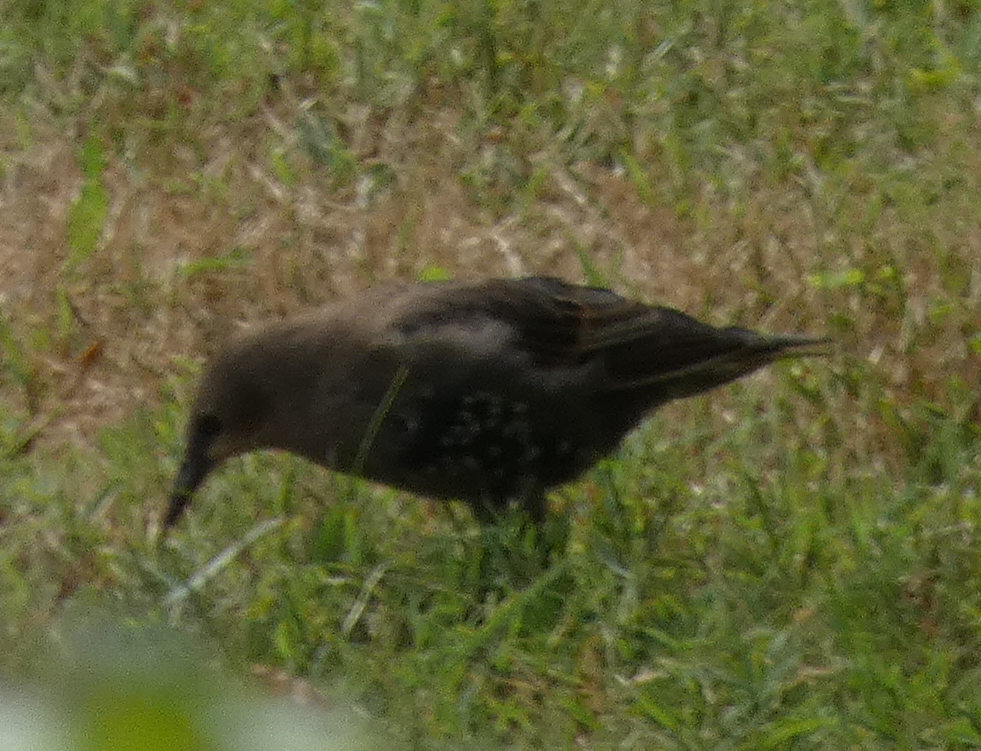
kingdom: Animalia
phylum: Chordata
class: Aves
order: Passeriformes
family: Sturnidae
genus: Sturnus
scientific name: Sturnus vulgaris
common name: Common starling
